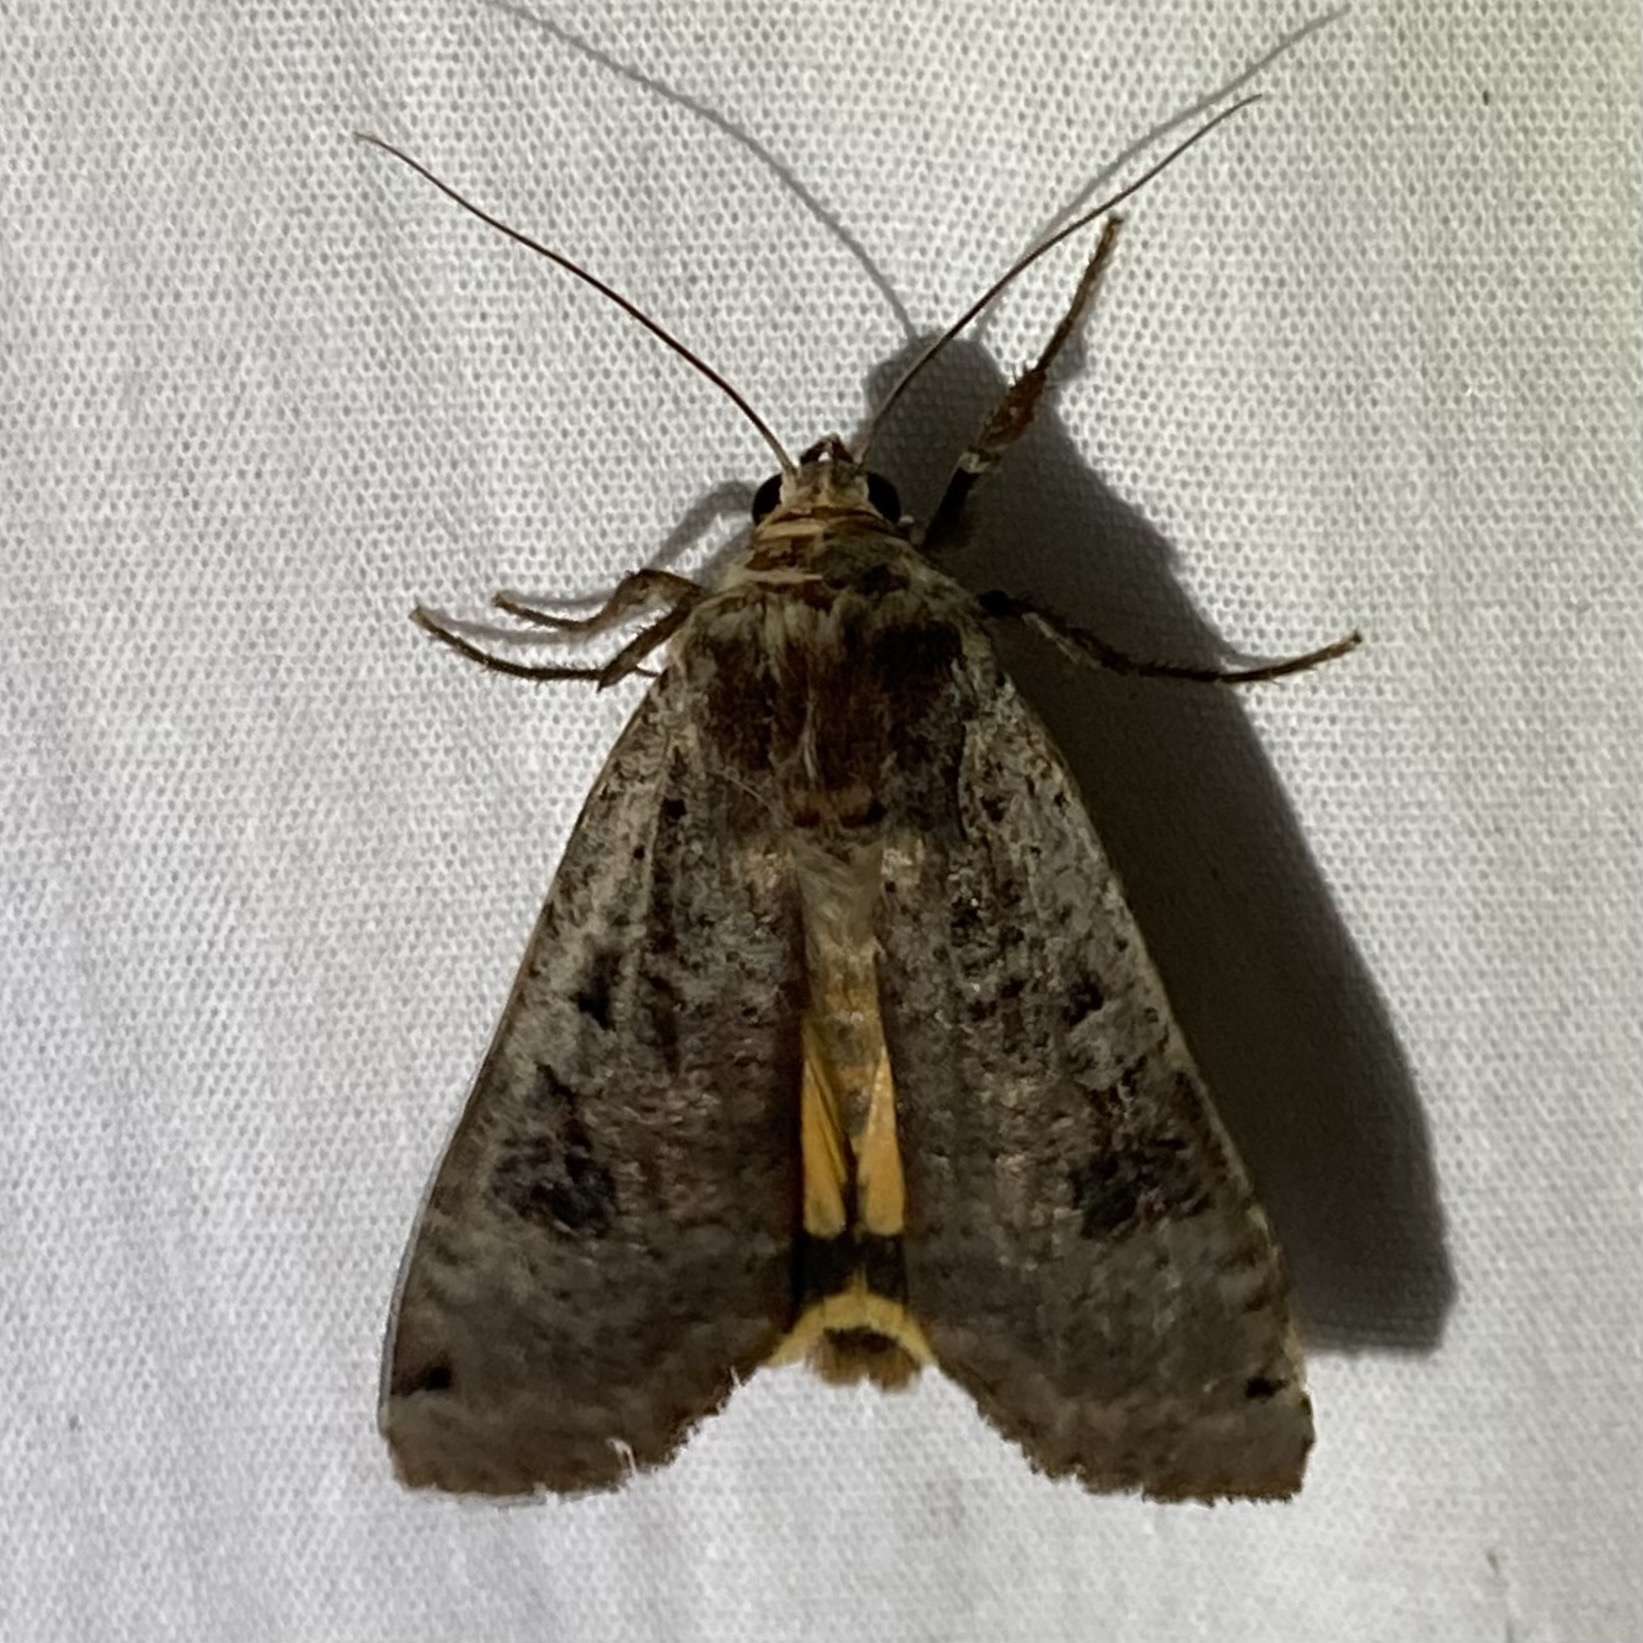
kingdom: Animalia
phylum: Arthropoda
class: Insecta
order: Lepidoptera
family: Noctuidae
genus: Noctua
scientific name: Noctua pronuba
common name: Large yellow underwing
